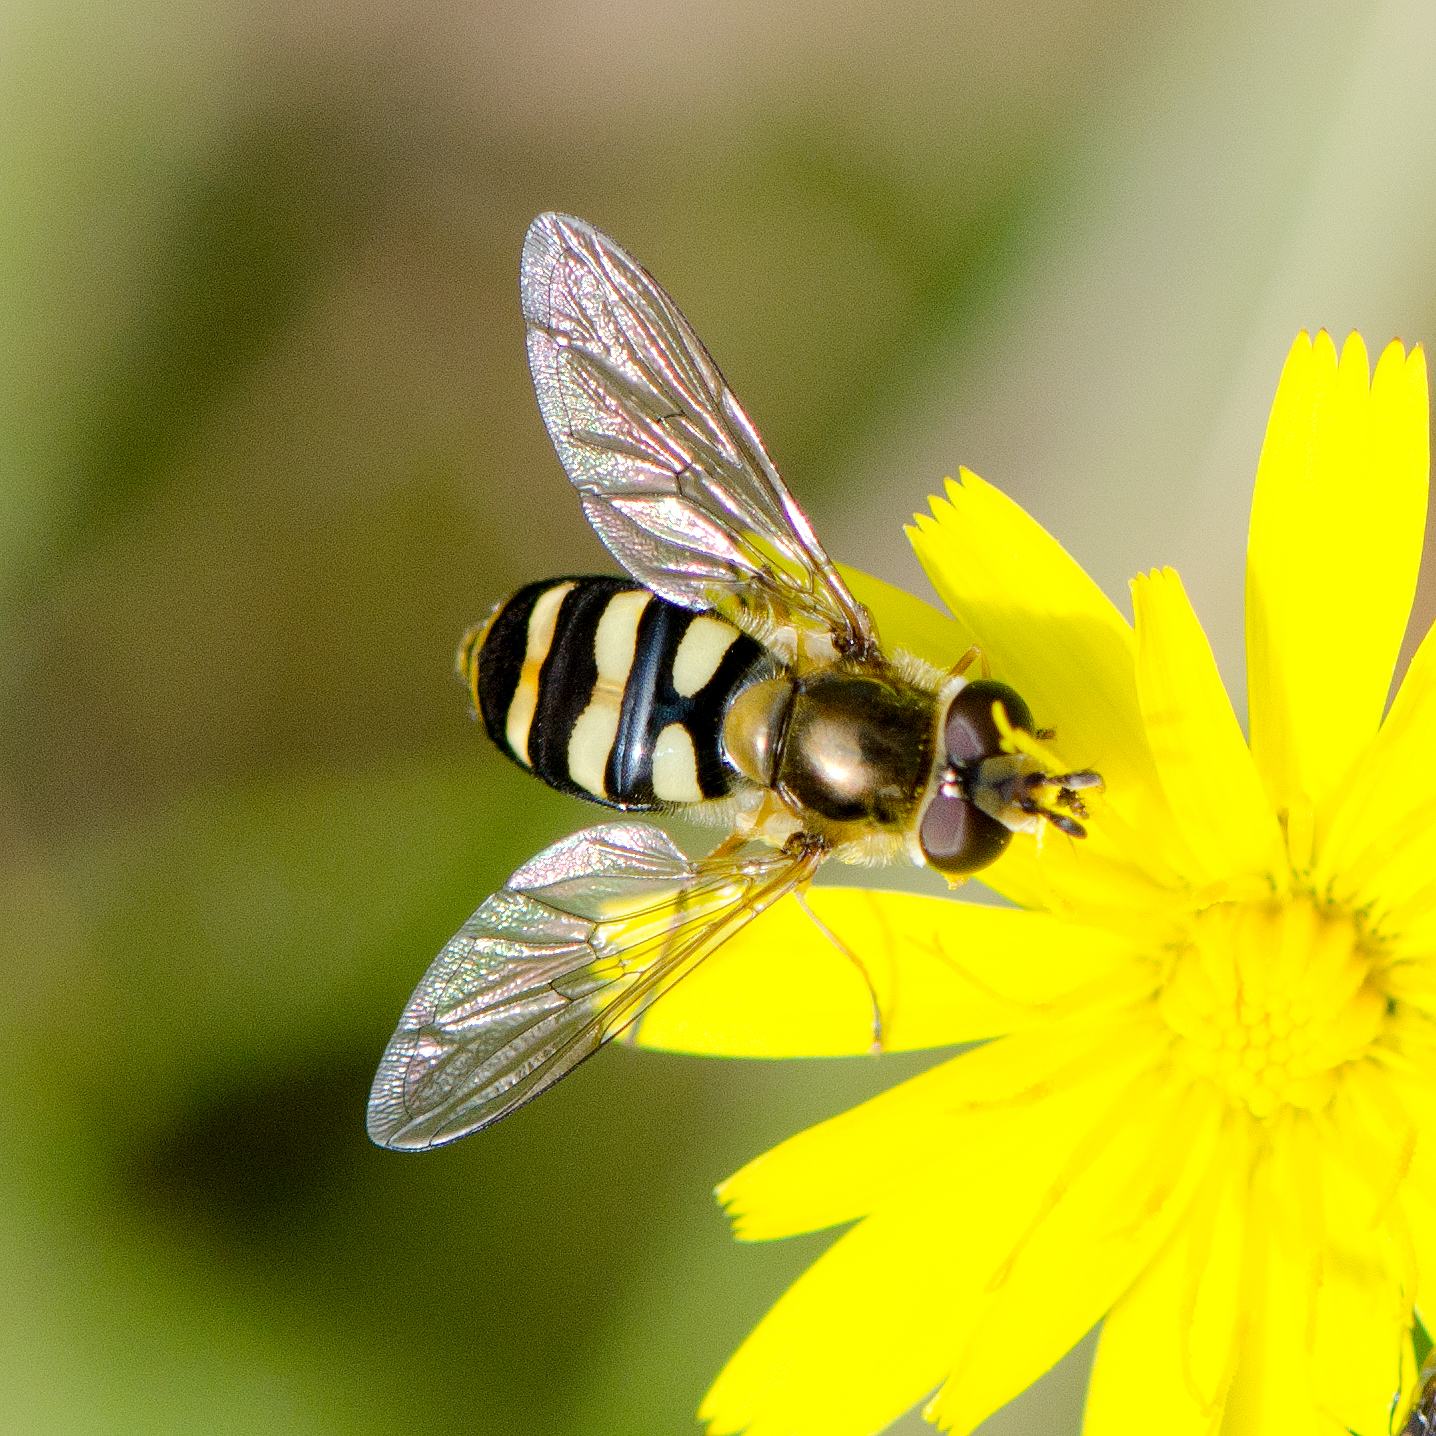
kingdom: Animalia
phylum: Arthropoda
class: Insecta
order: Diptera
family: Syrphidae
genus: Eupeodes
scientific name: Eupeodes fumipennis
